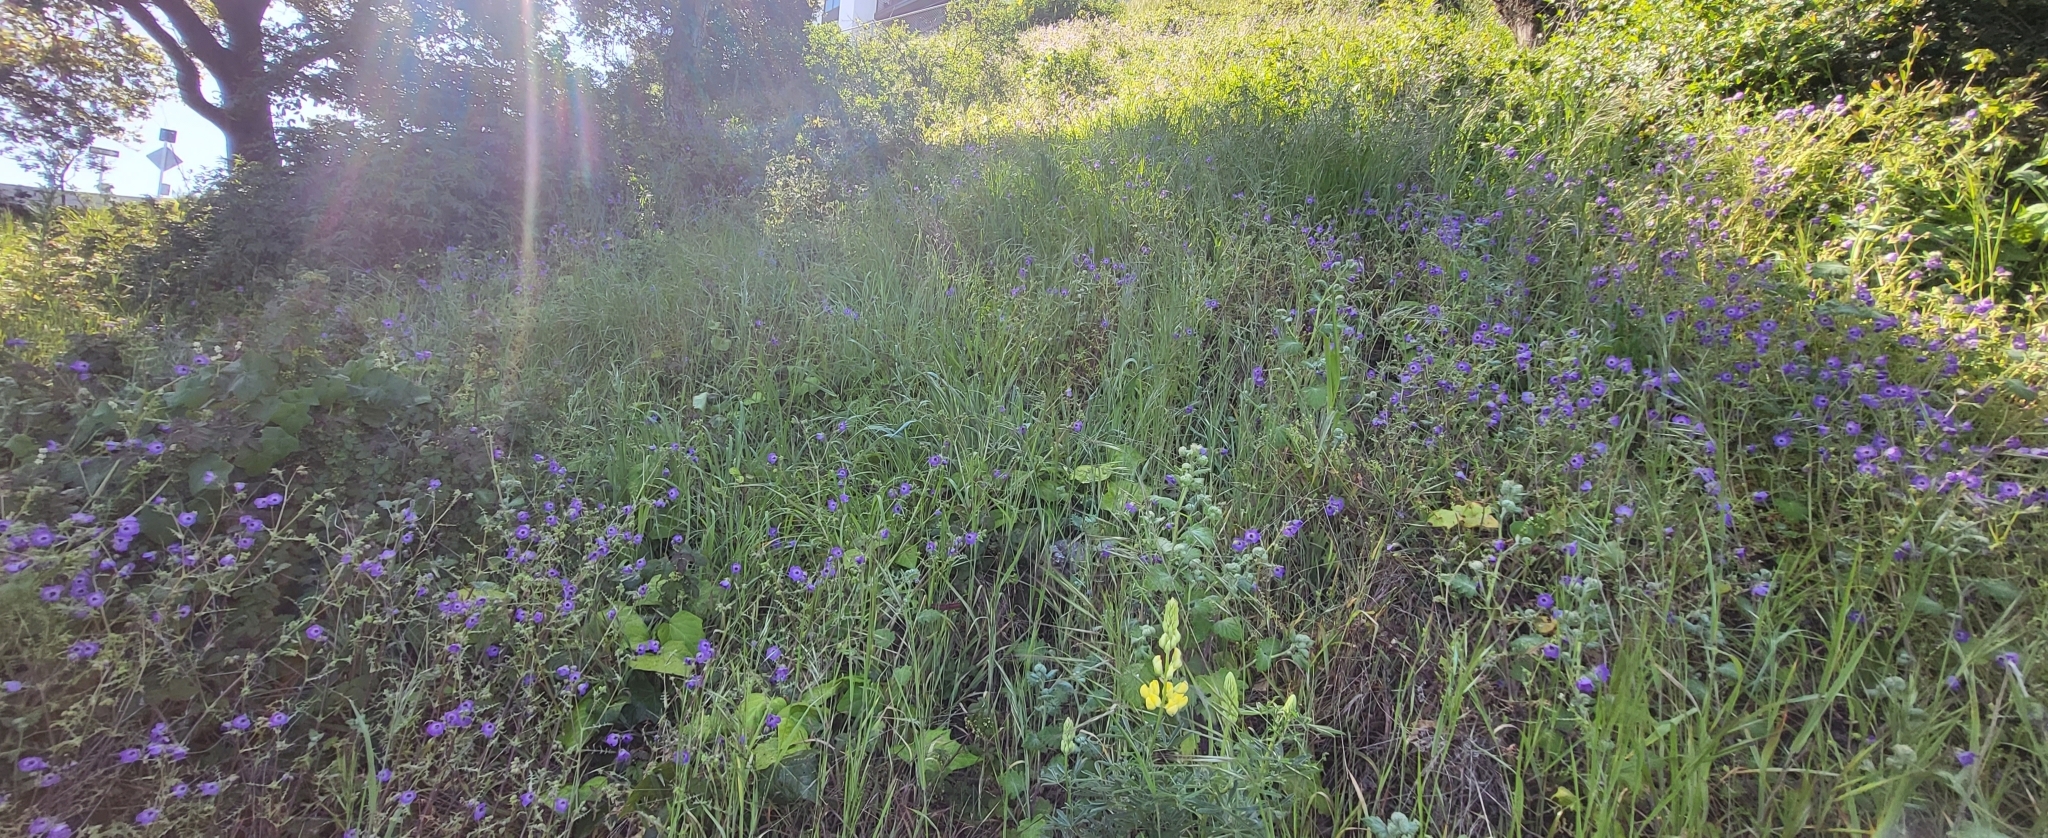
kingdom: Plantae
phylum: Tracheophyta
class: Magnoliopsida
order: Boraginales
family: Hydrophyllaceae
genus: Pholistoma
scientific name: Pholistoma auritum
